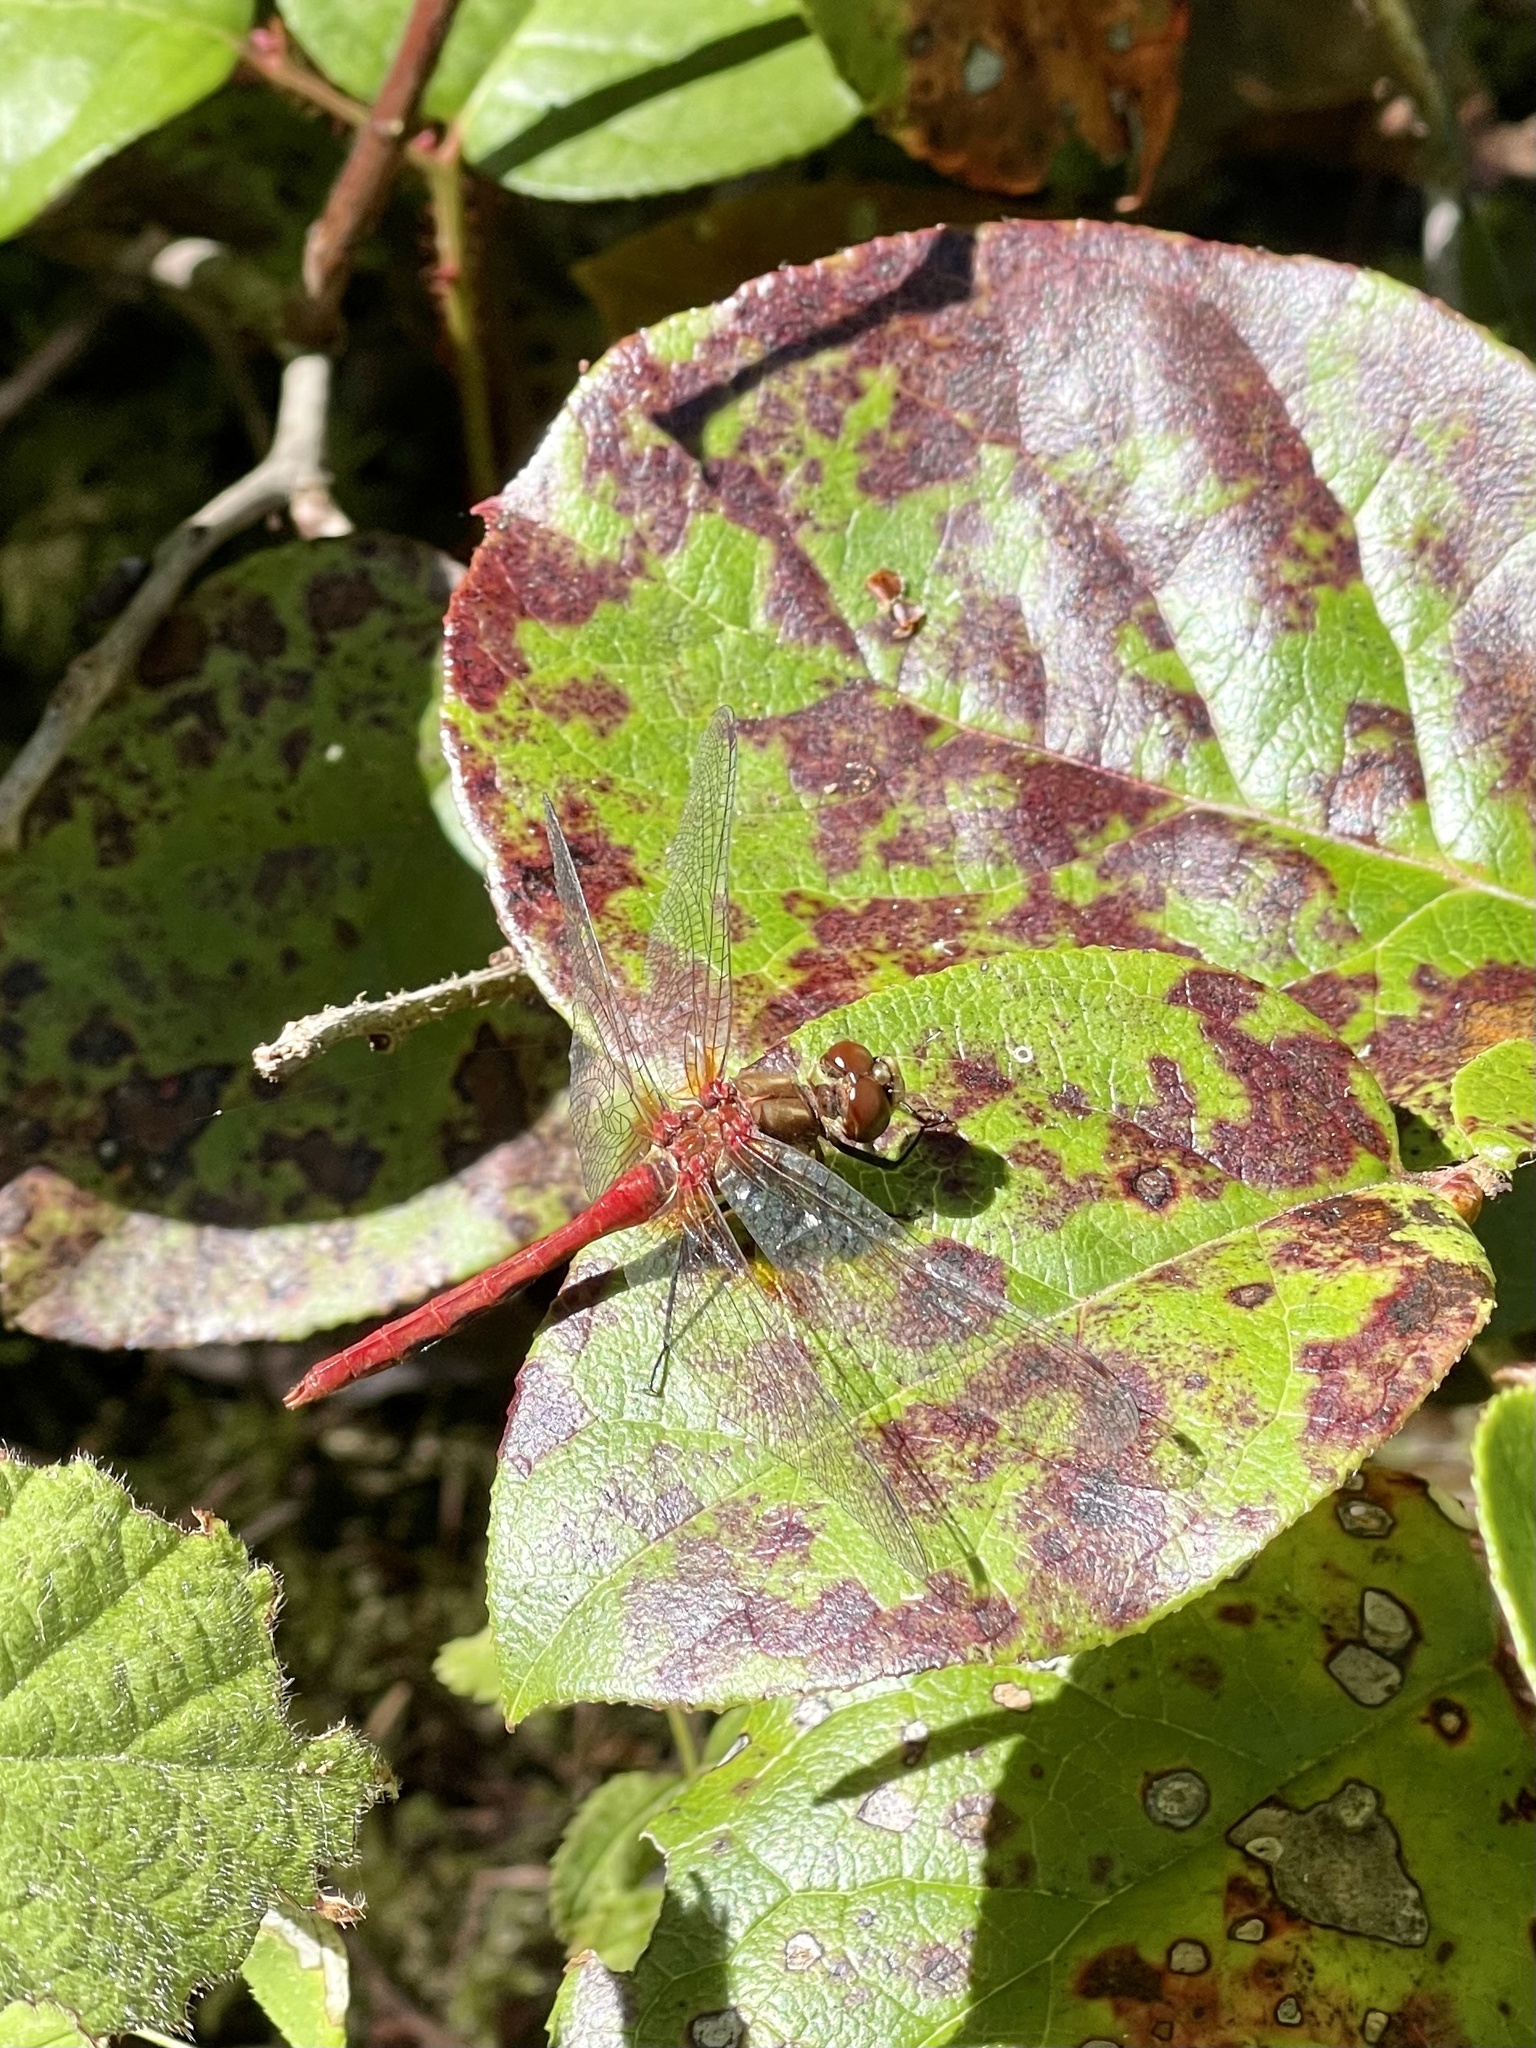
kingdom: Animalia
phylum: Arthropoda
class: Insecta
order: Odonata
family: Libellulidae
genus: Sympetrum
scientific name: Sympetrum pallipes
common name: Striped meadowhawk
